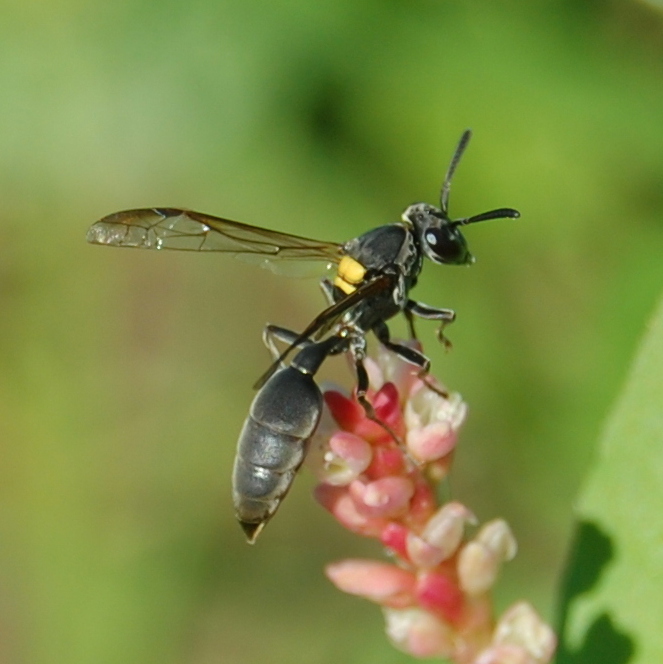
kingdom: Animalia
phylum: Arthropoda
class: Insecta
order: Hymenoptera
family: Eumenidae
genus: Polybia
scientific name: Polybia scutellaris
